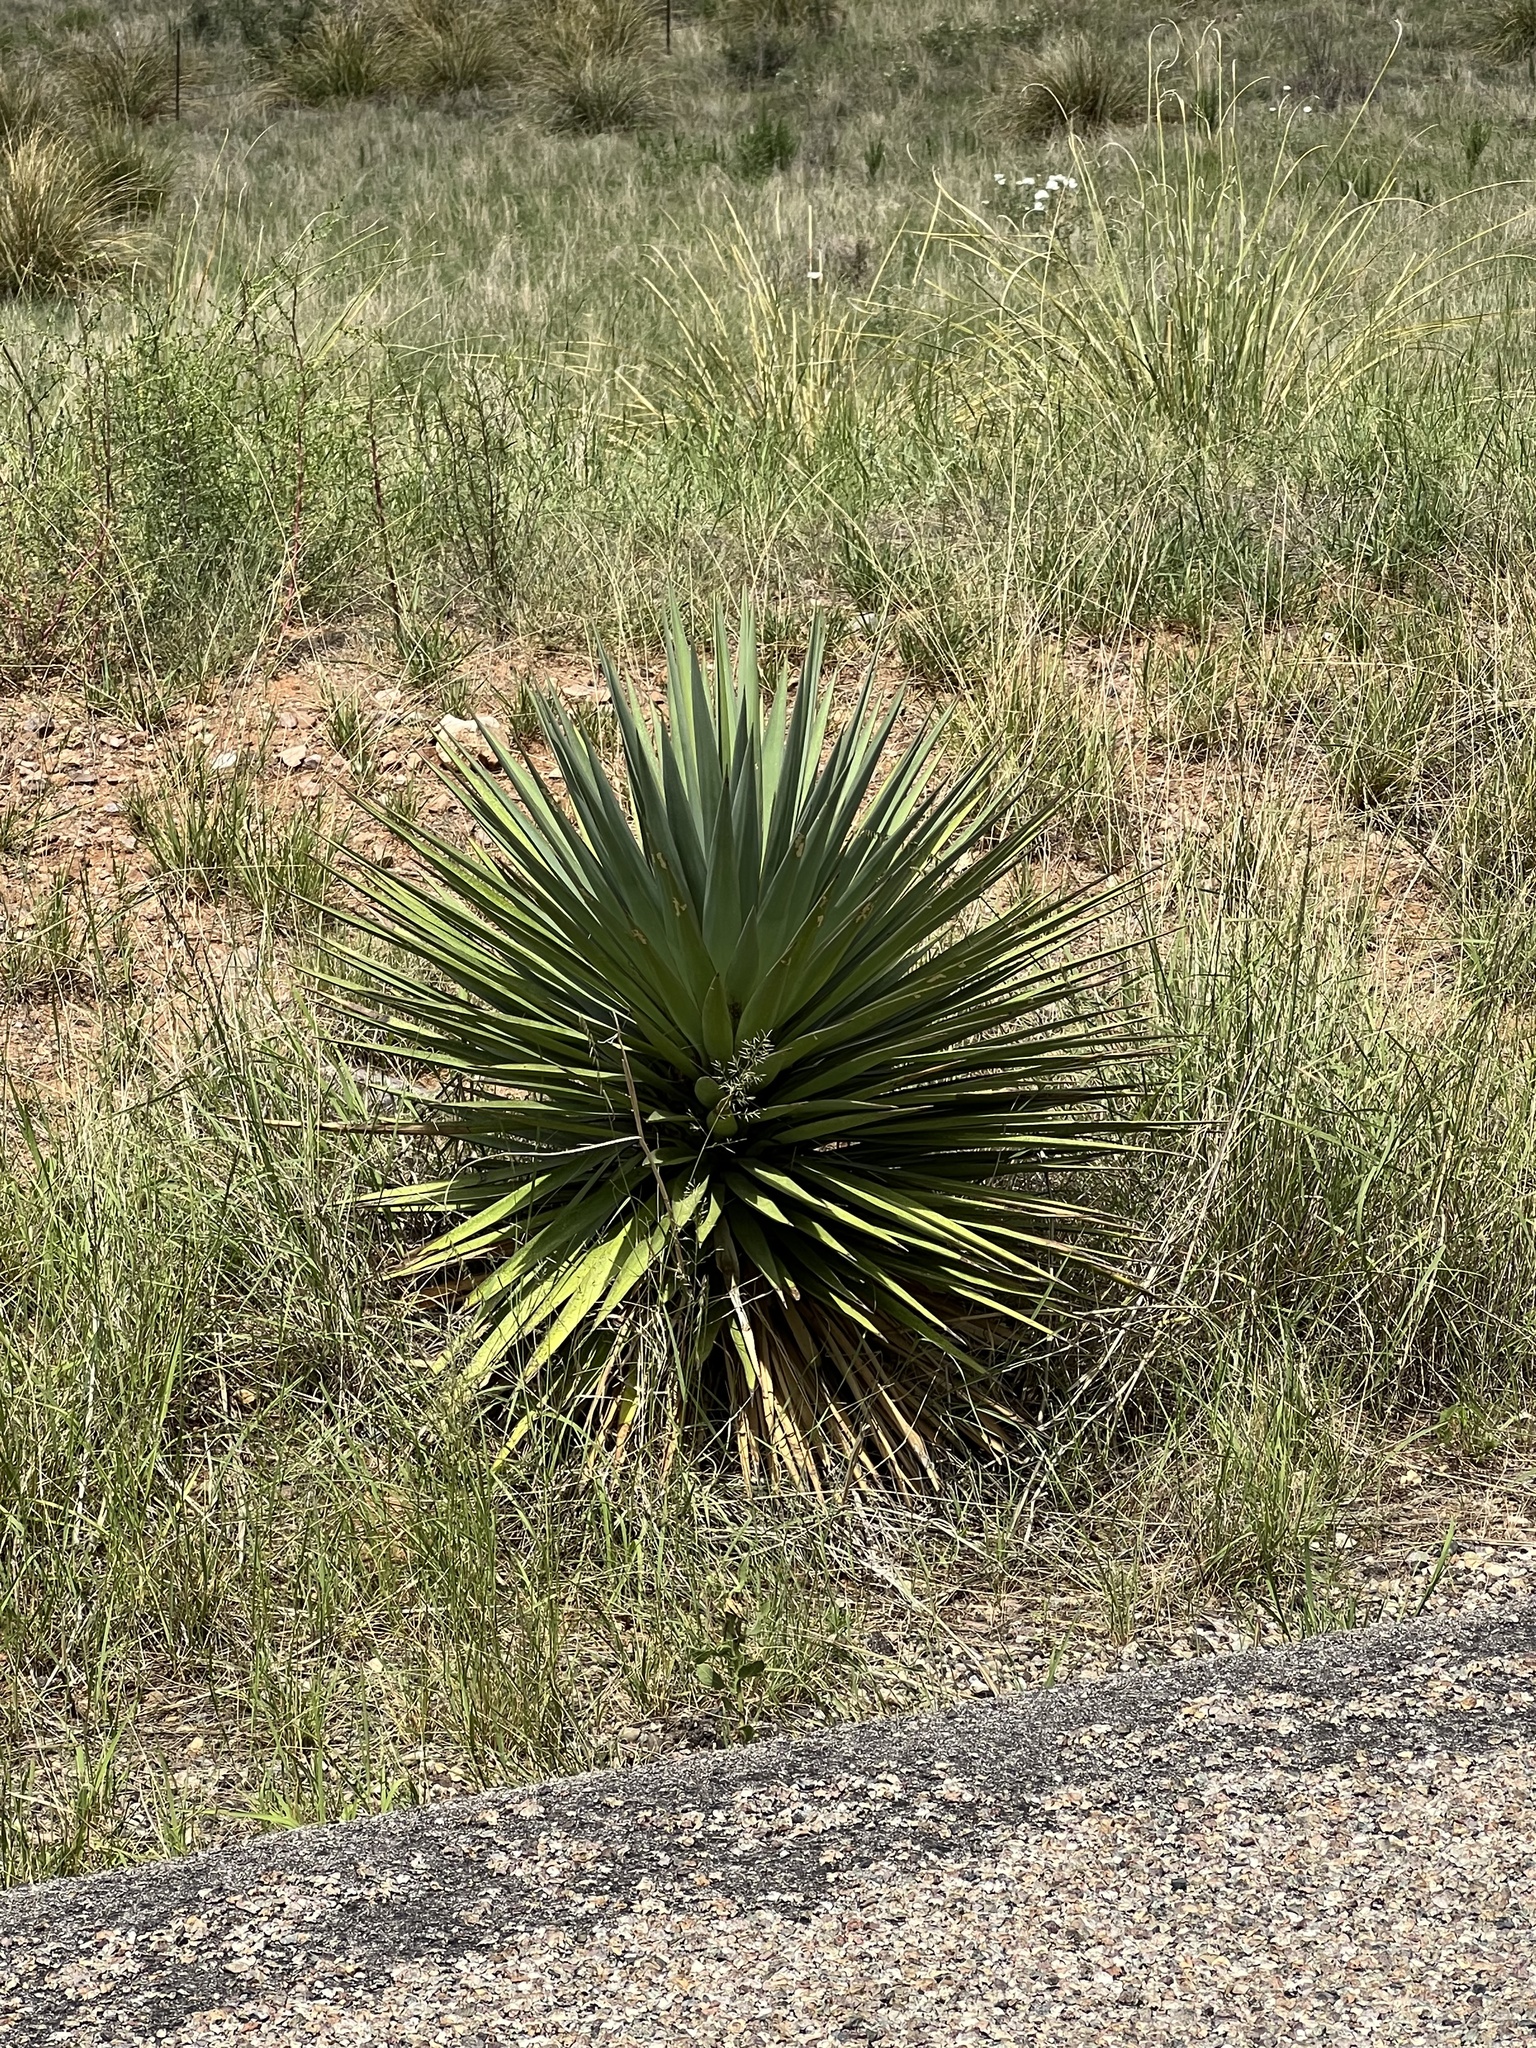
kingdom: Plantae
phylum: Tracheophyta
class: Liliopsida
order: Asparagales
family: Asparagaceae
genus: Yucca
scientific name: Yucca schottii
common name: Hoary yucca
